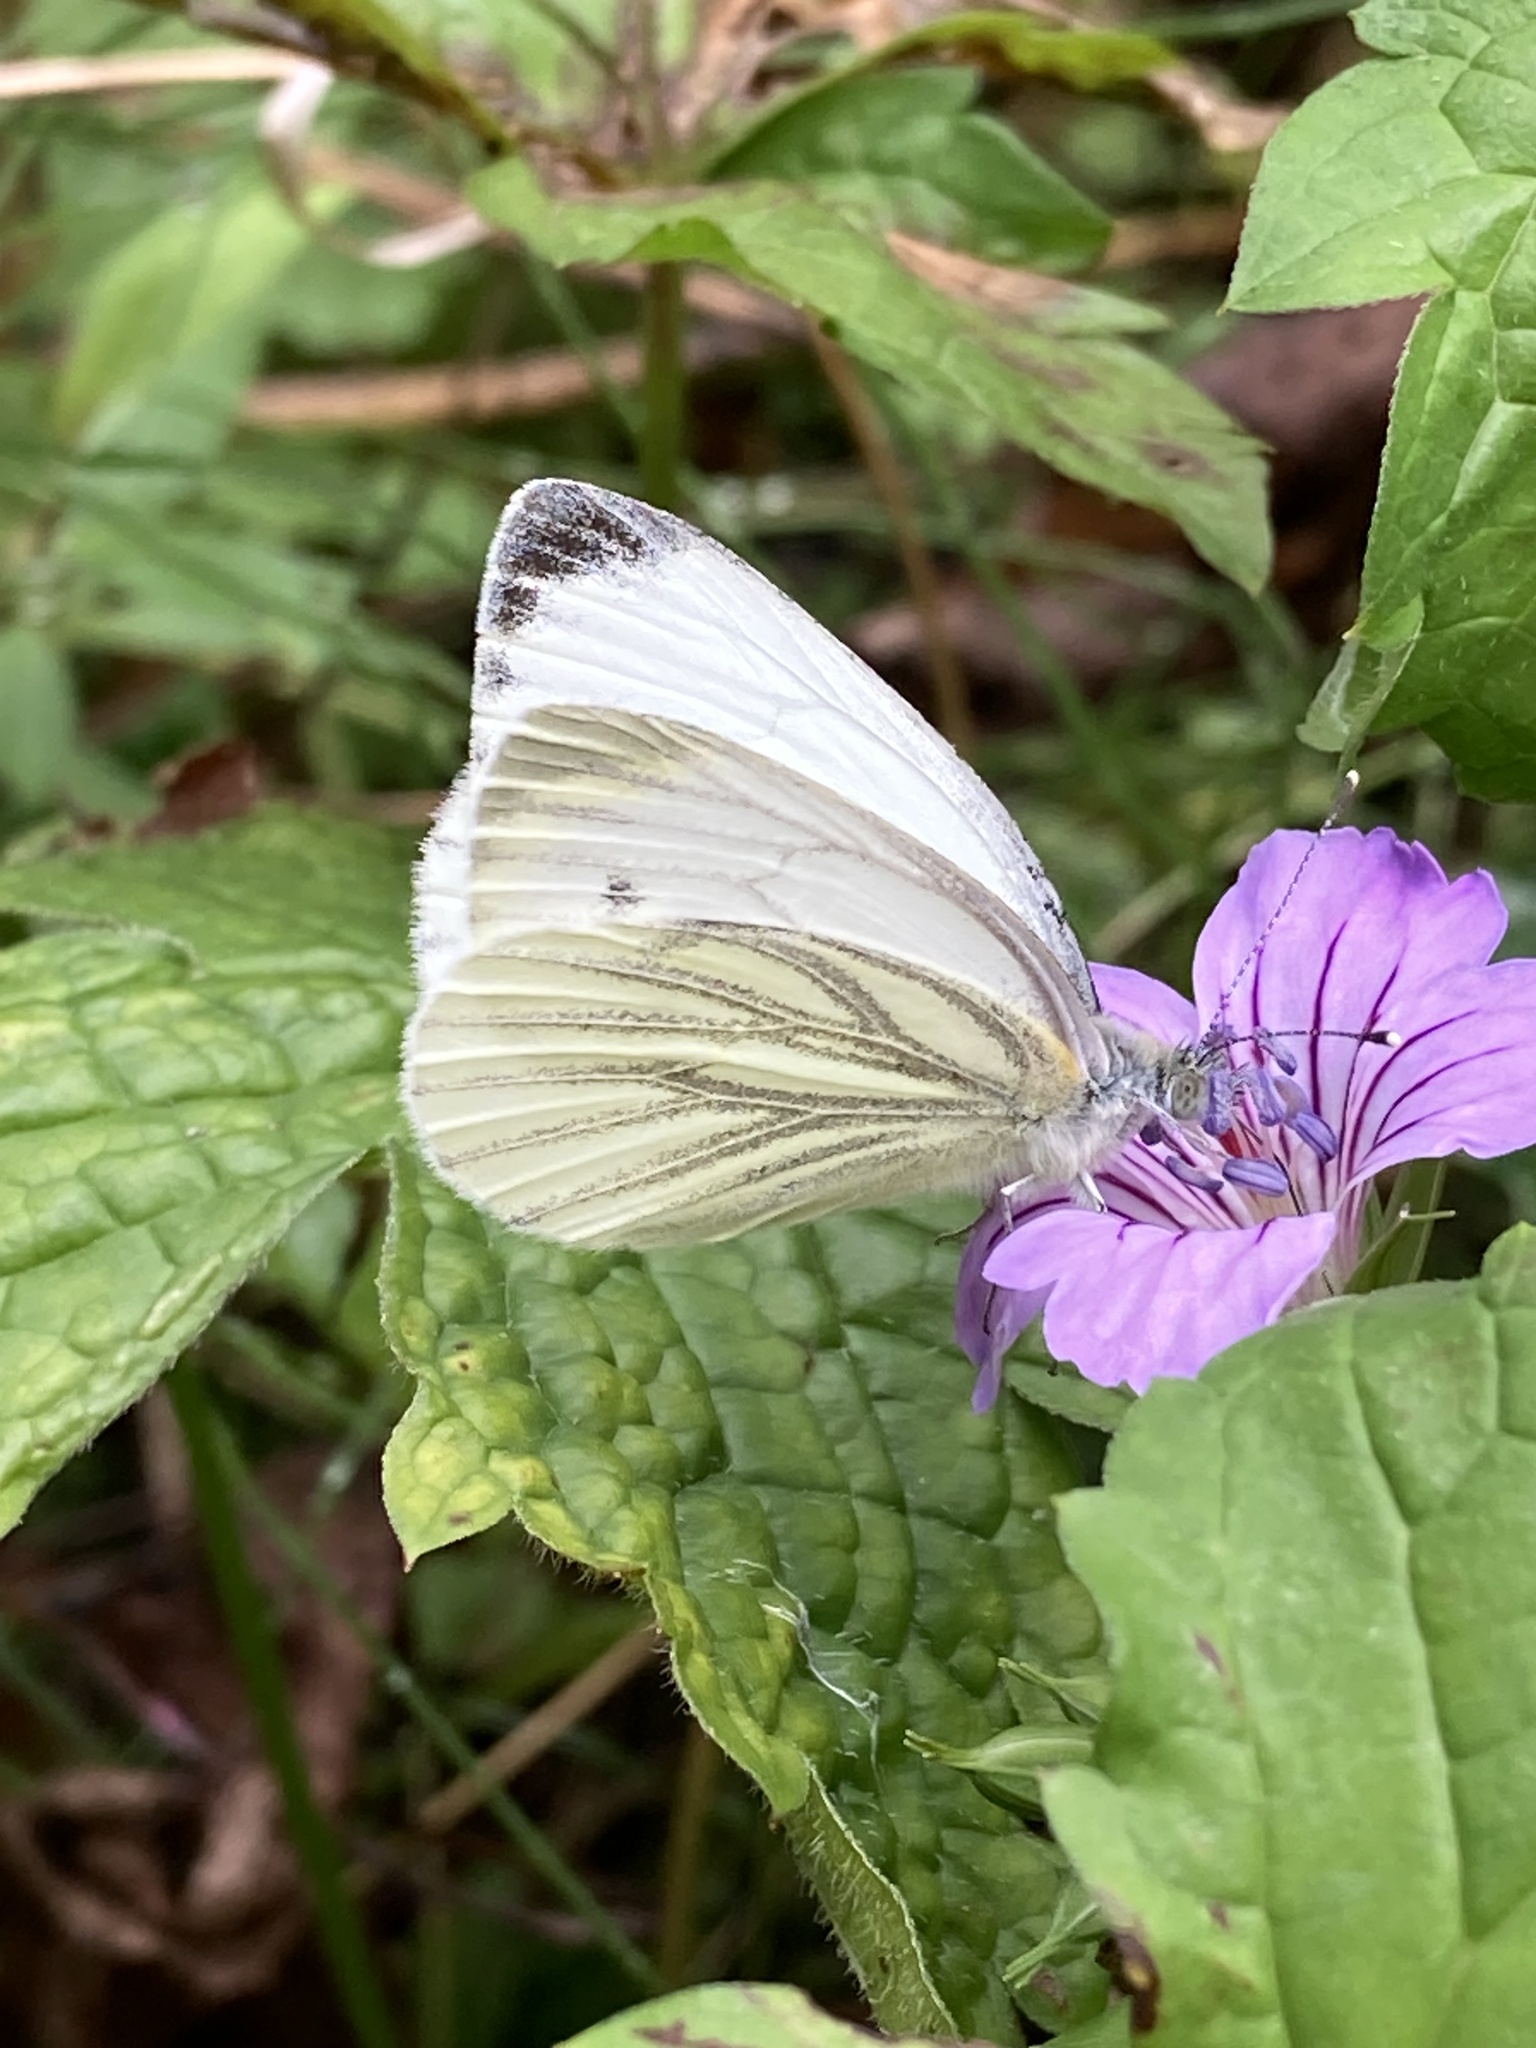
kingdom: Animalia
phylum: Arthropoda
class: Insecta
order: Lepidoptera
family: Pieridae
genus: Pieris
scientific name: Pieris napi
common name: Green-veined white
